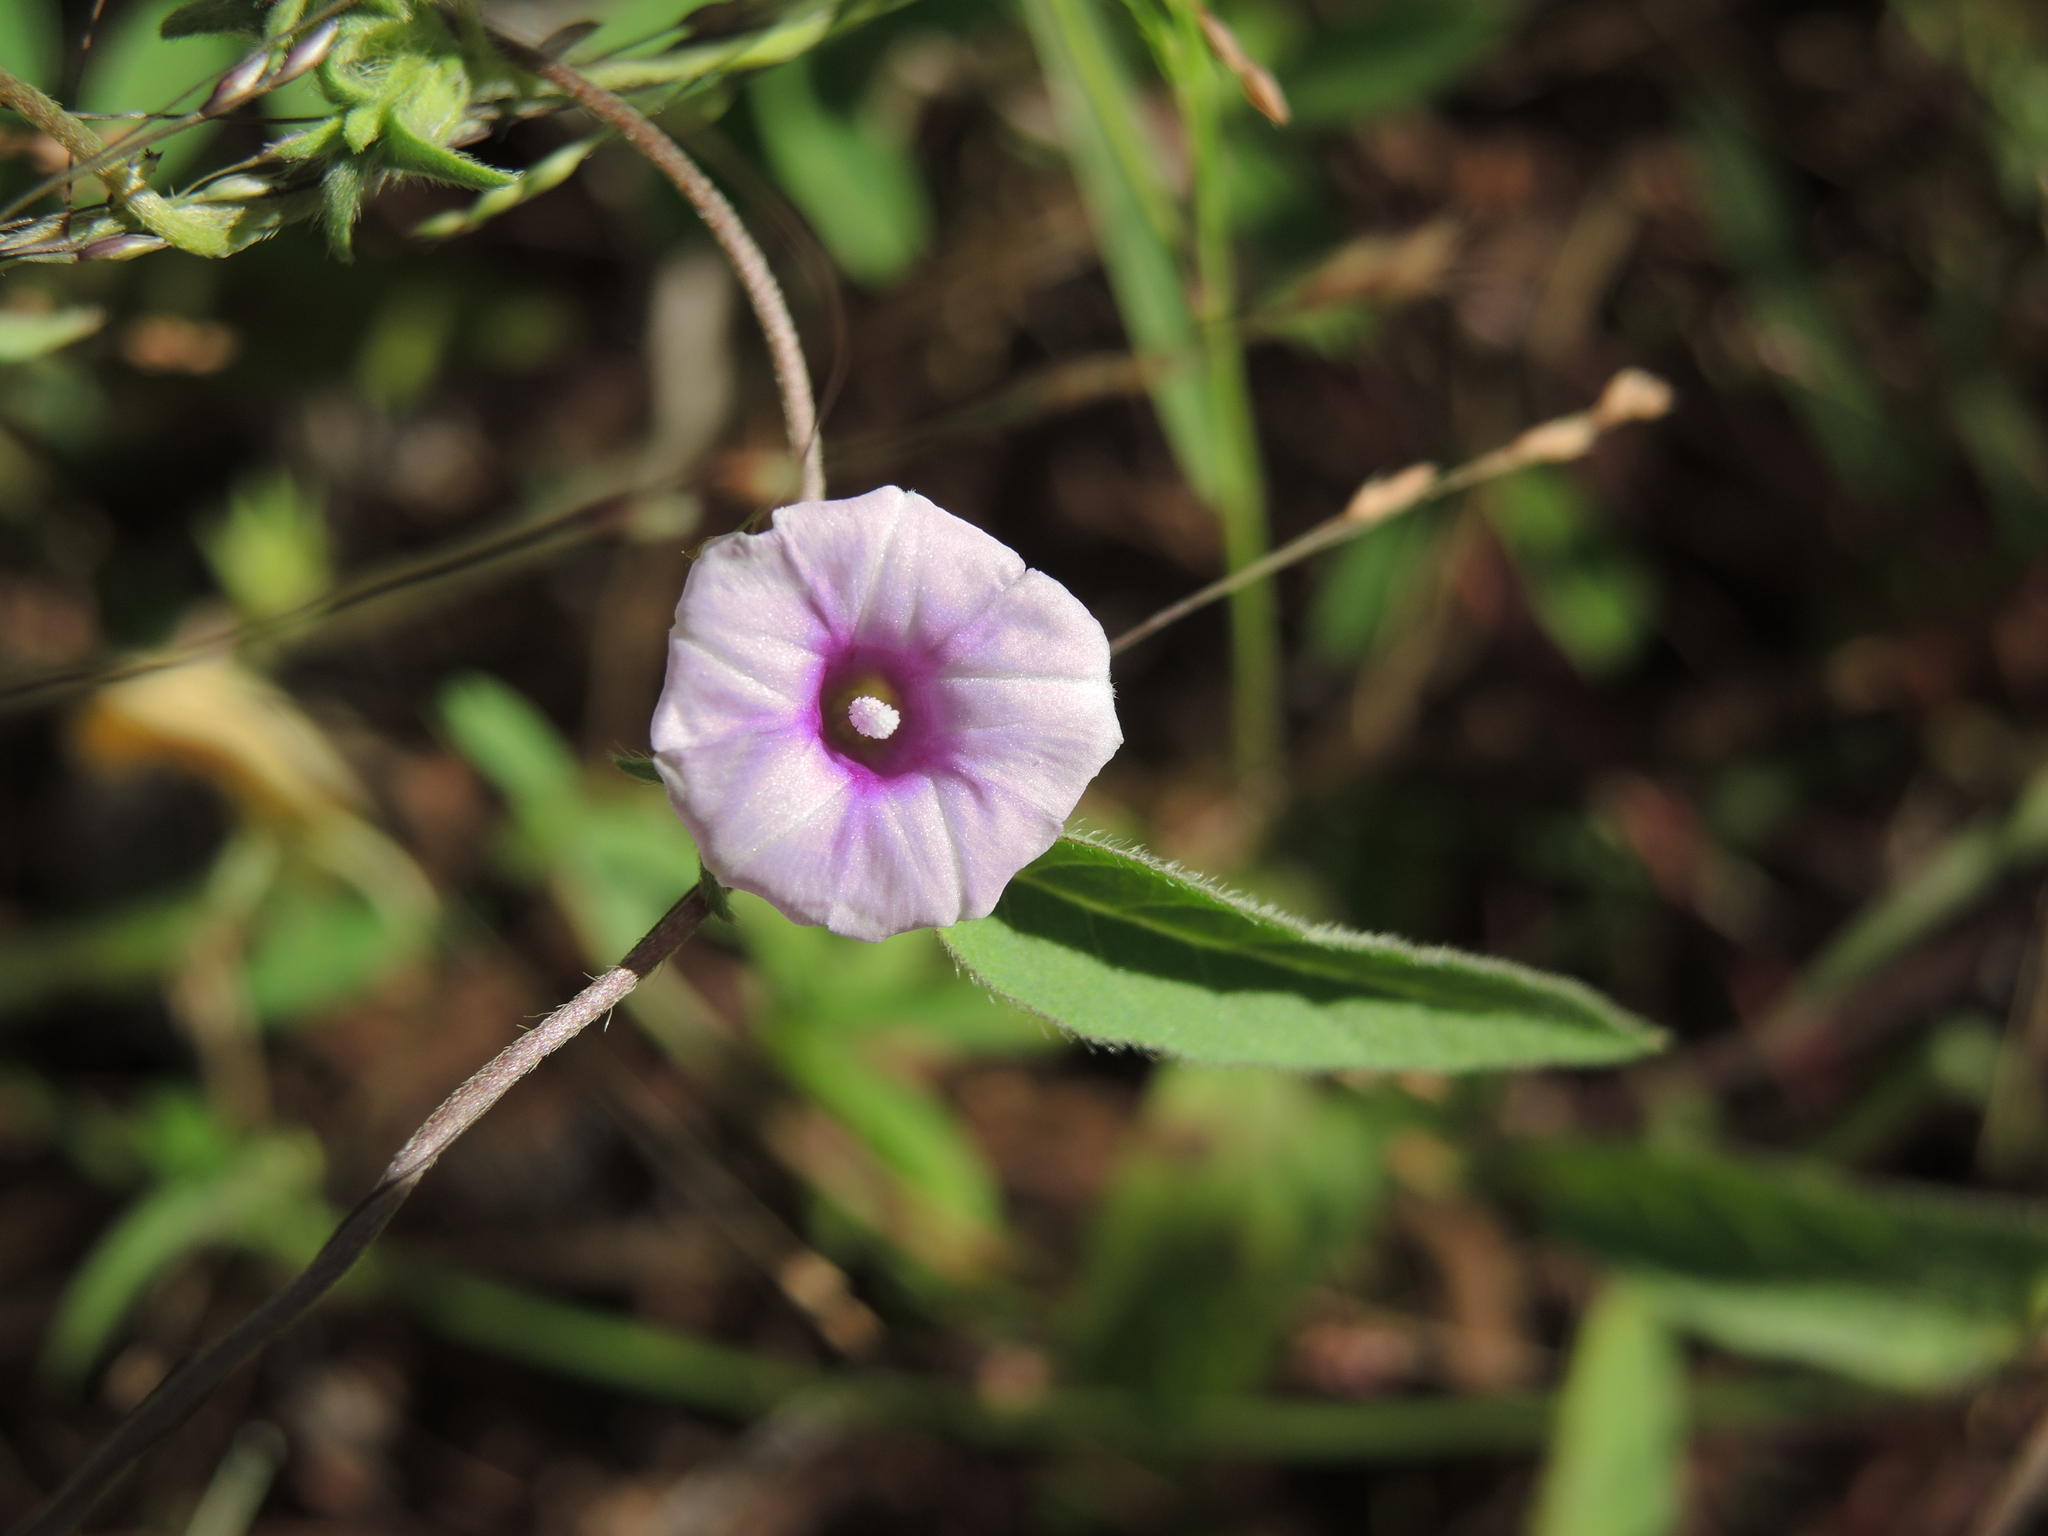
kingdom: Plantae
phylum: Tracheophyta
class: Magnoliopsida
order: Solanales
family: Convolvulaceae
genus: Ipomoea
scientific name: Ipomoea eriocarpa
